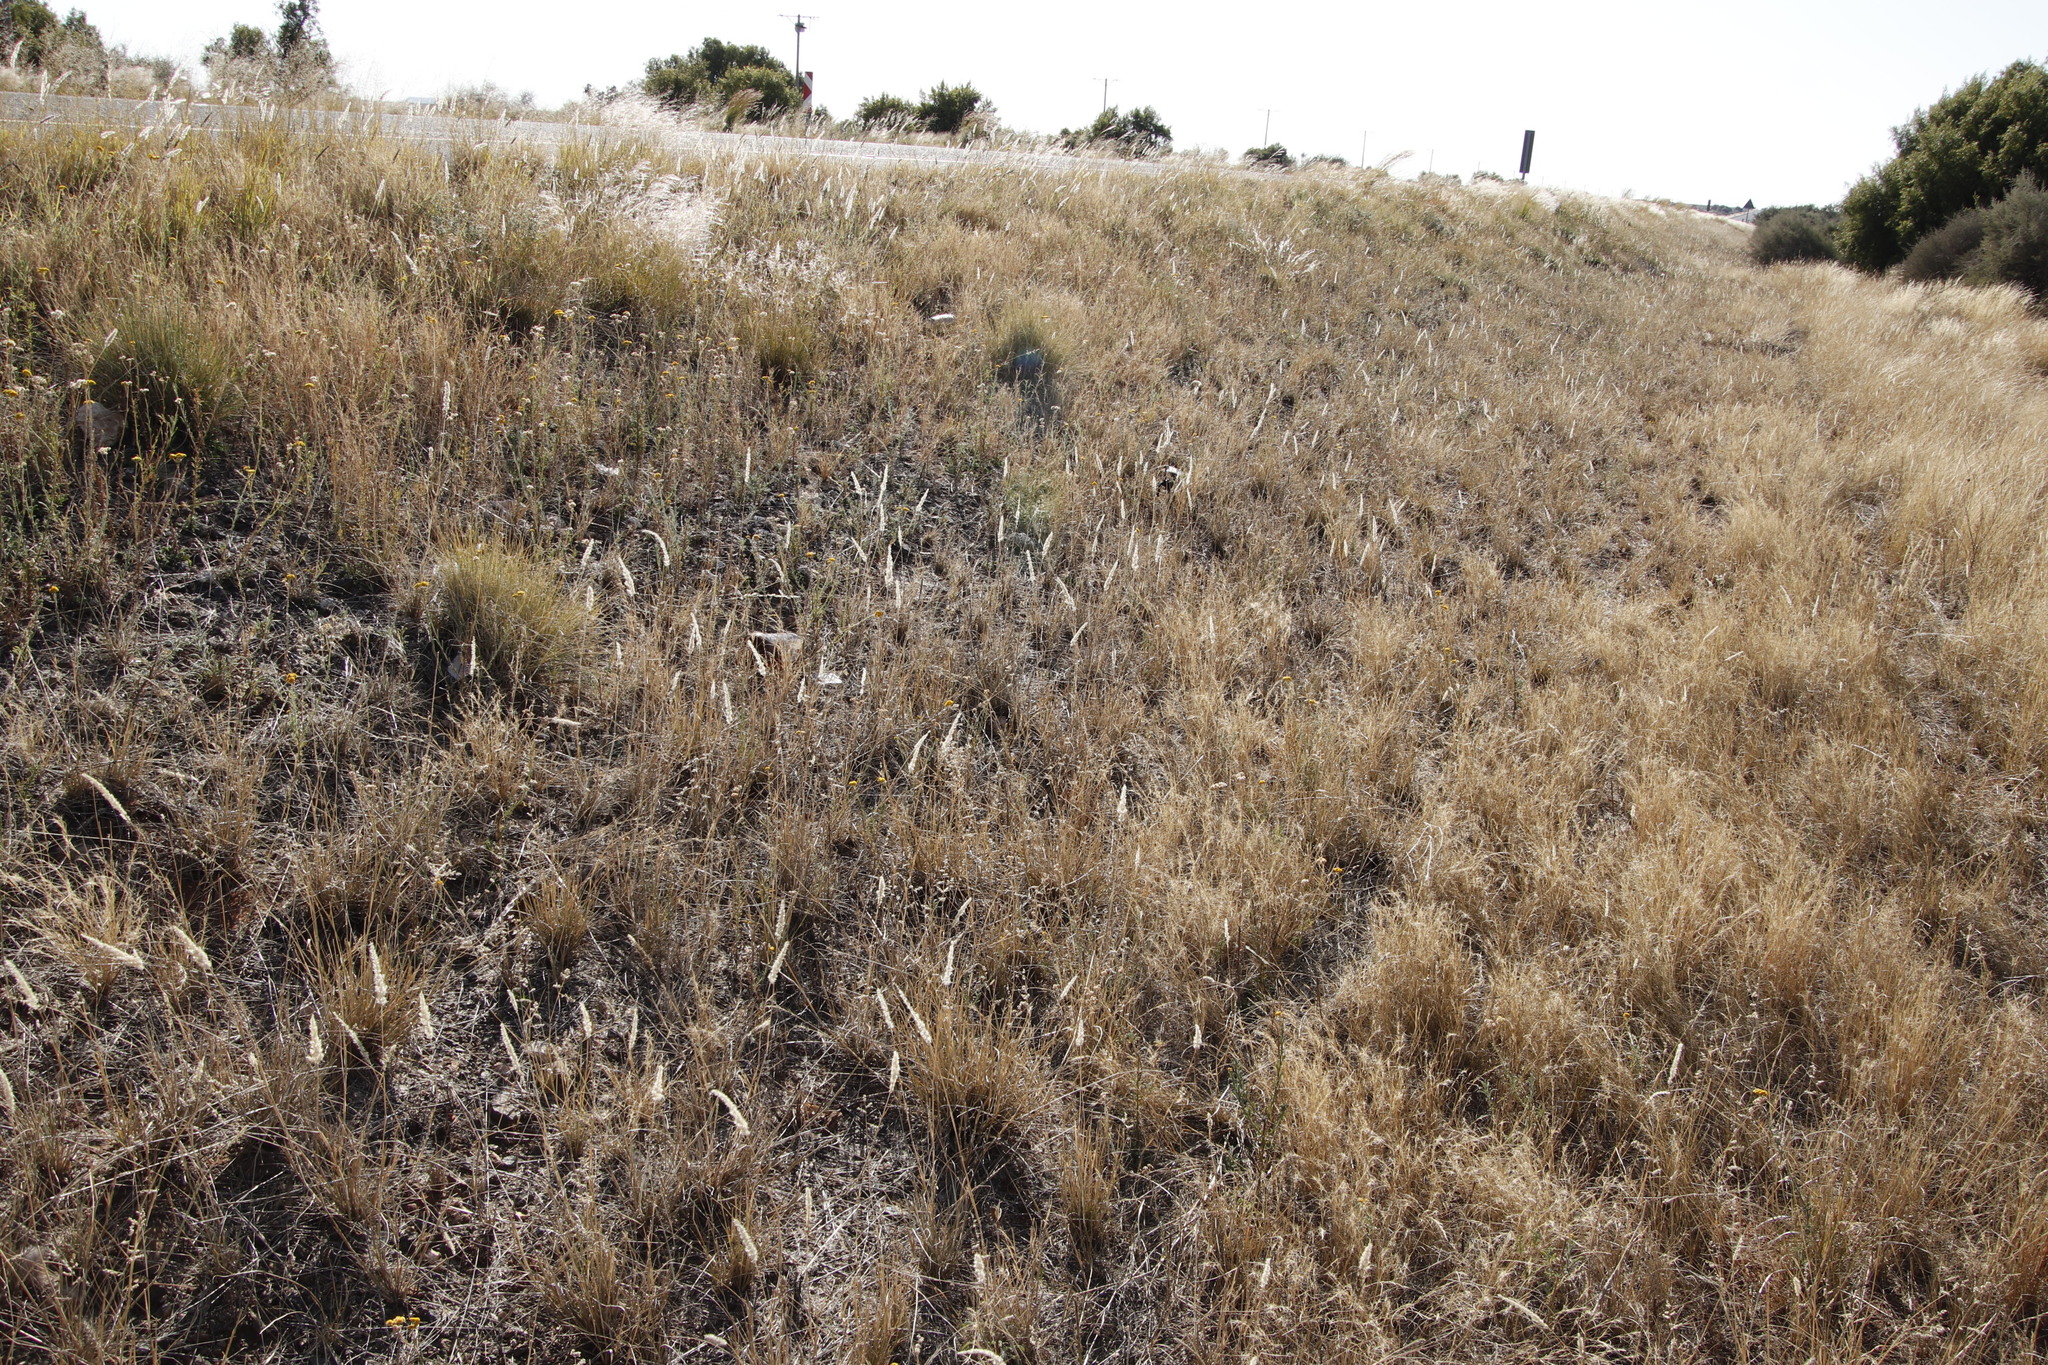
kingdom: Plantae
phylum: Tracheophyta
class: Liliopsida
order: Poales
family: Poaceae
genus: Enneapogon
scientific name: Enneapogon cenchroides
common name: Soft feather pappusgrass
